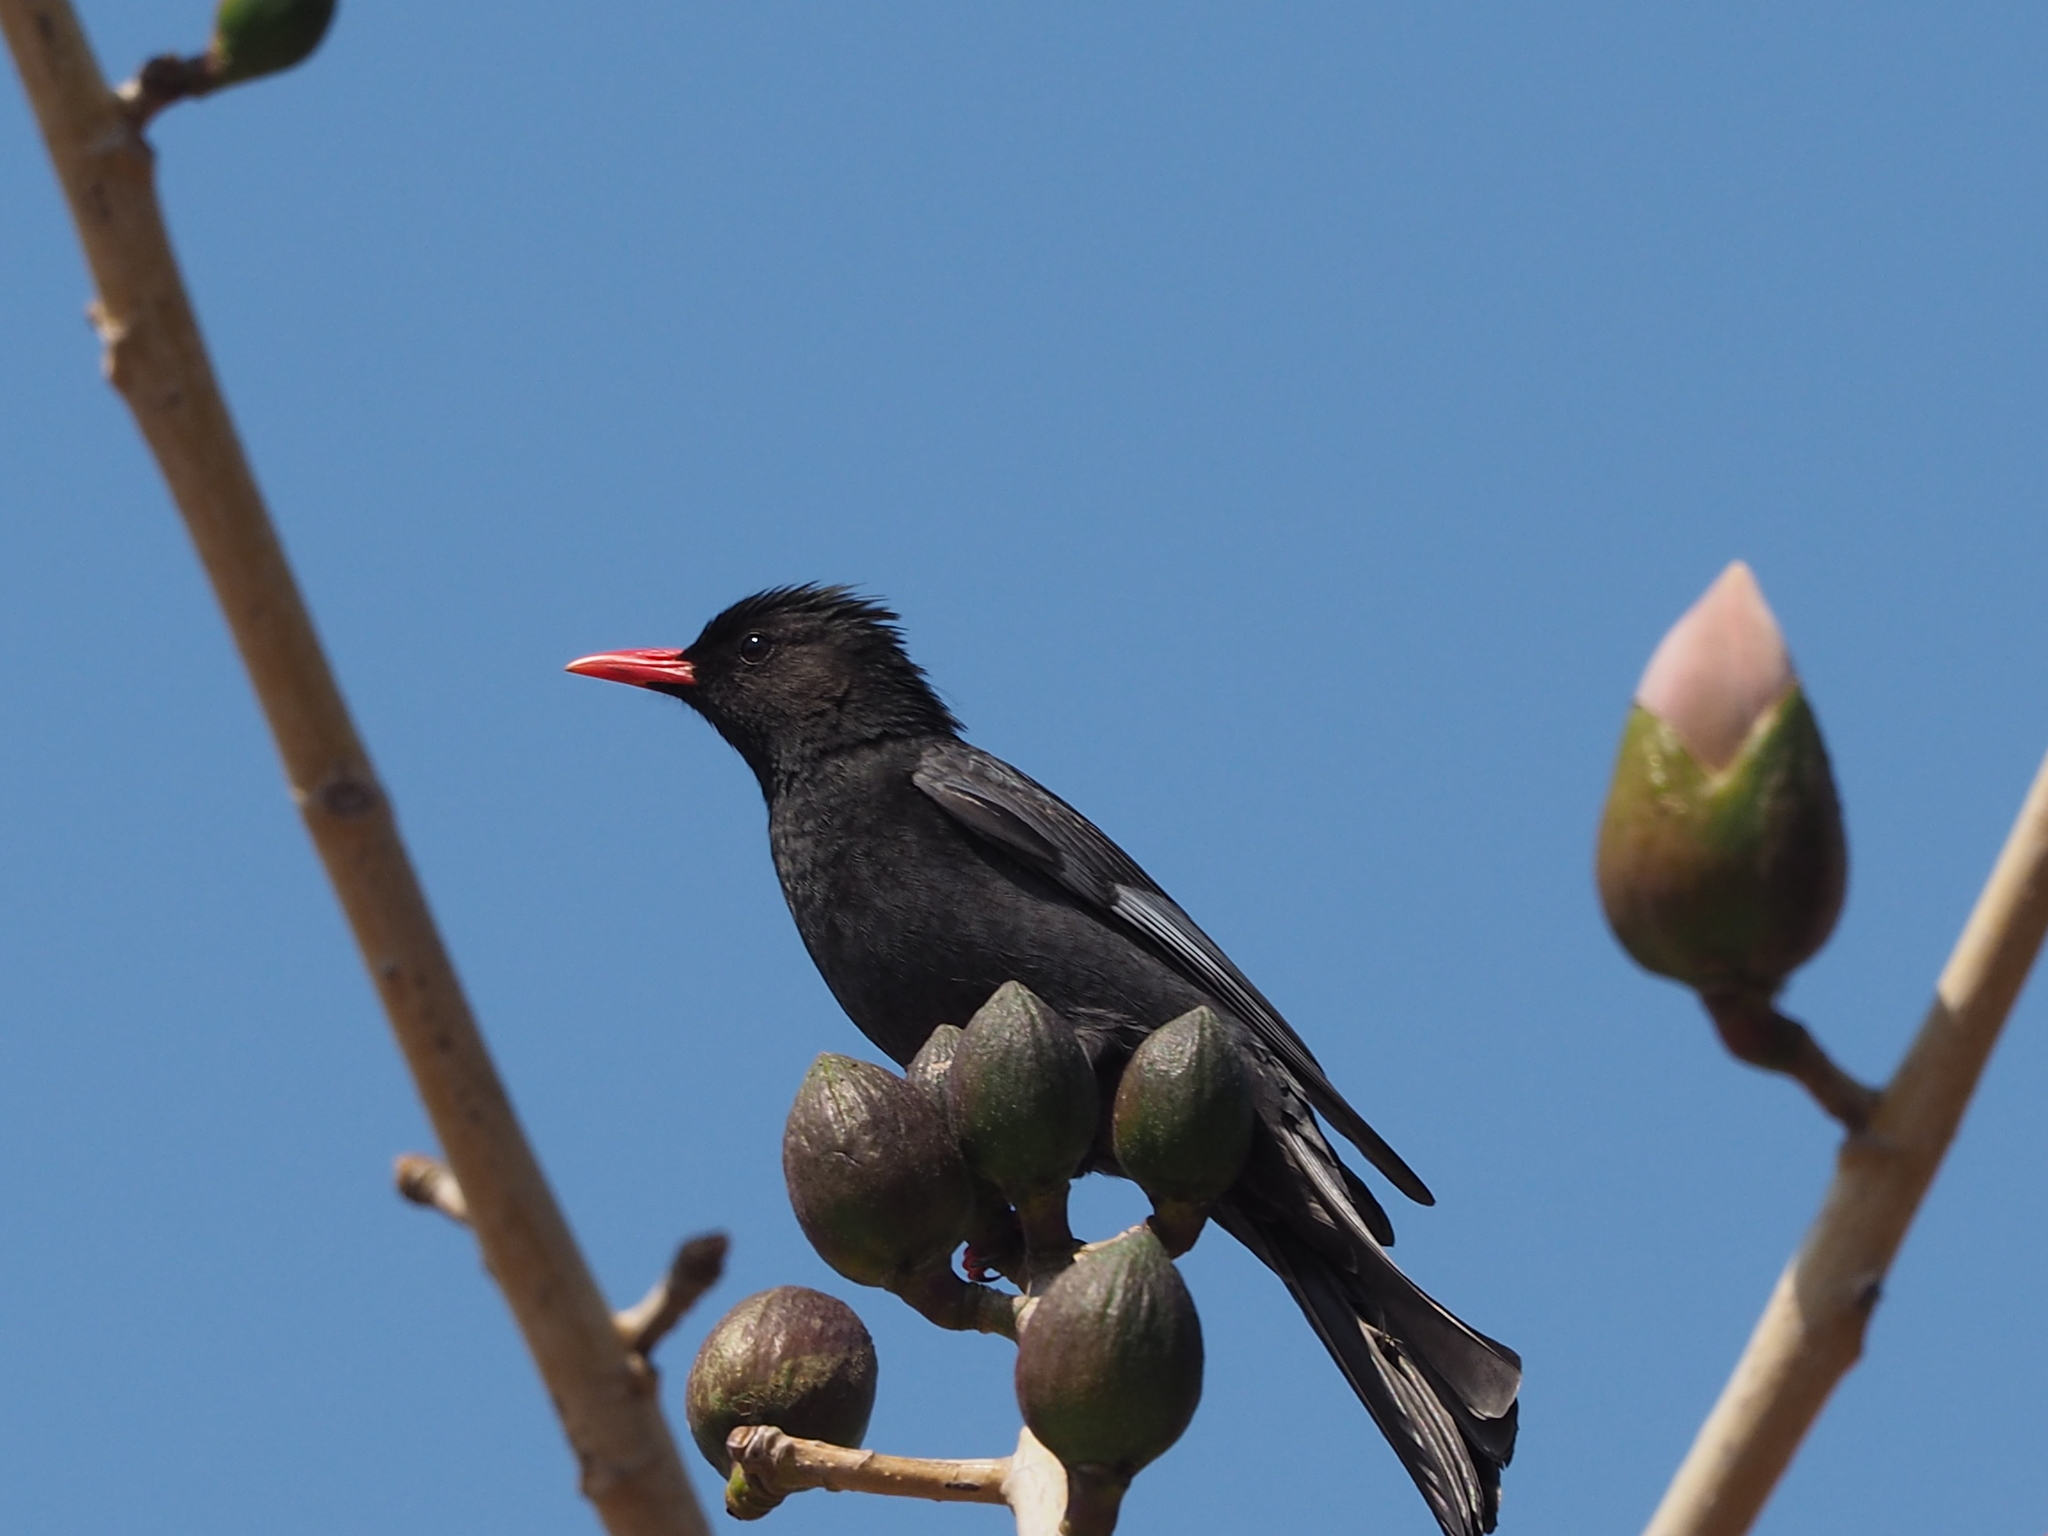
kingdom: Animalia
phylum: Chordata
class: Aves
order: Passeriformes
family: Pycnonotidae
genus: Hypsipetes
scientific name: Hypsipetes leucocephalus
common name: Black bulbul
